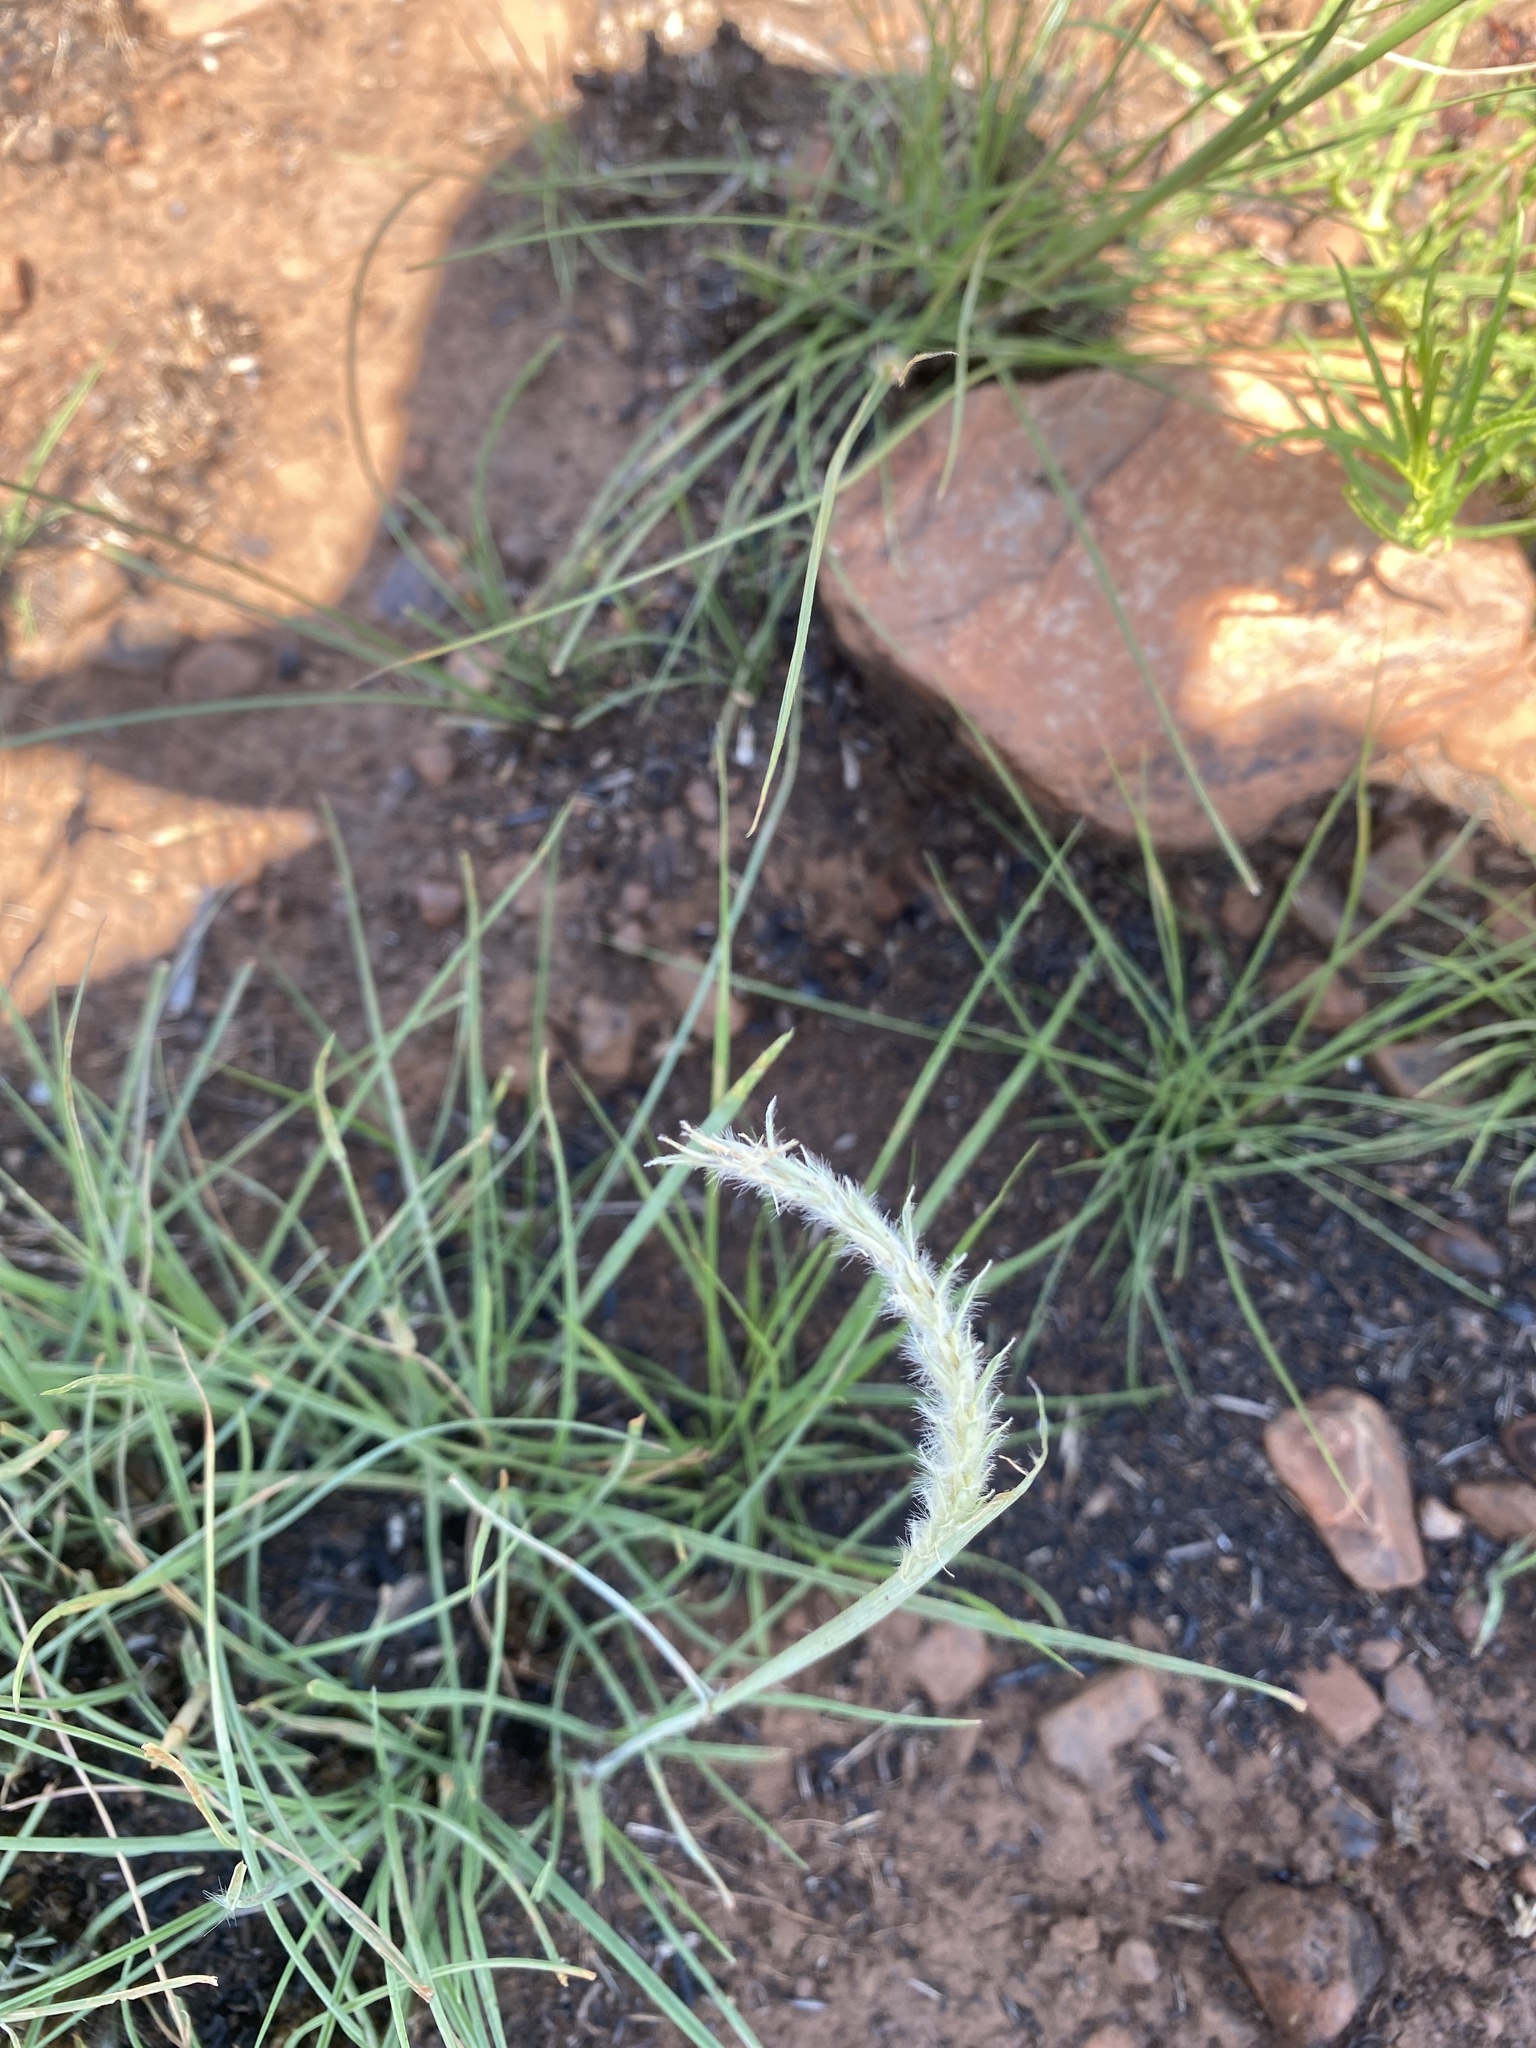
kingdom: Plantae
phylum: Tracheophyta
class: Liliopsida
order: Poales
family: Poaceae
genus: Elionurus
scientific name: Elionurus muticus
